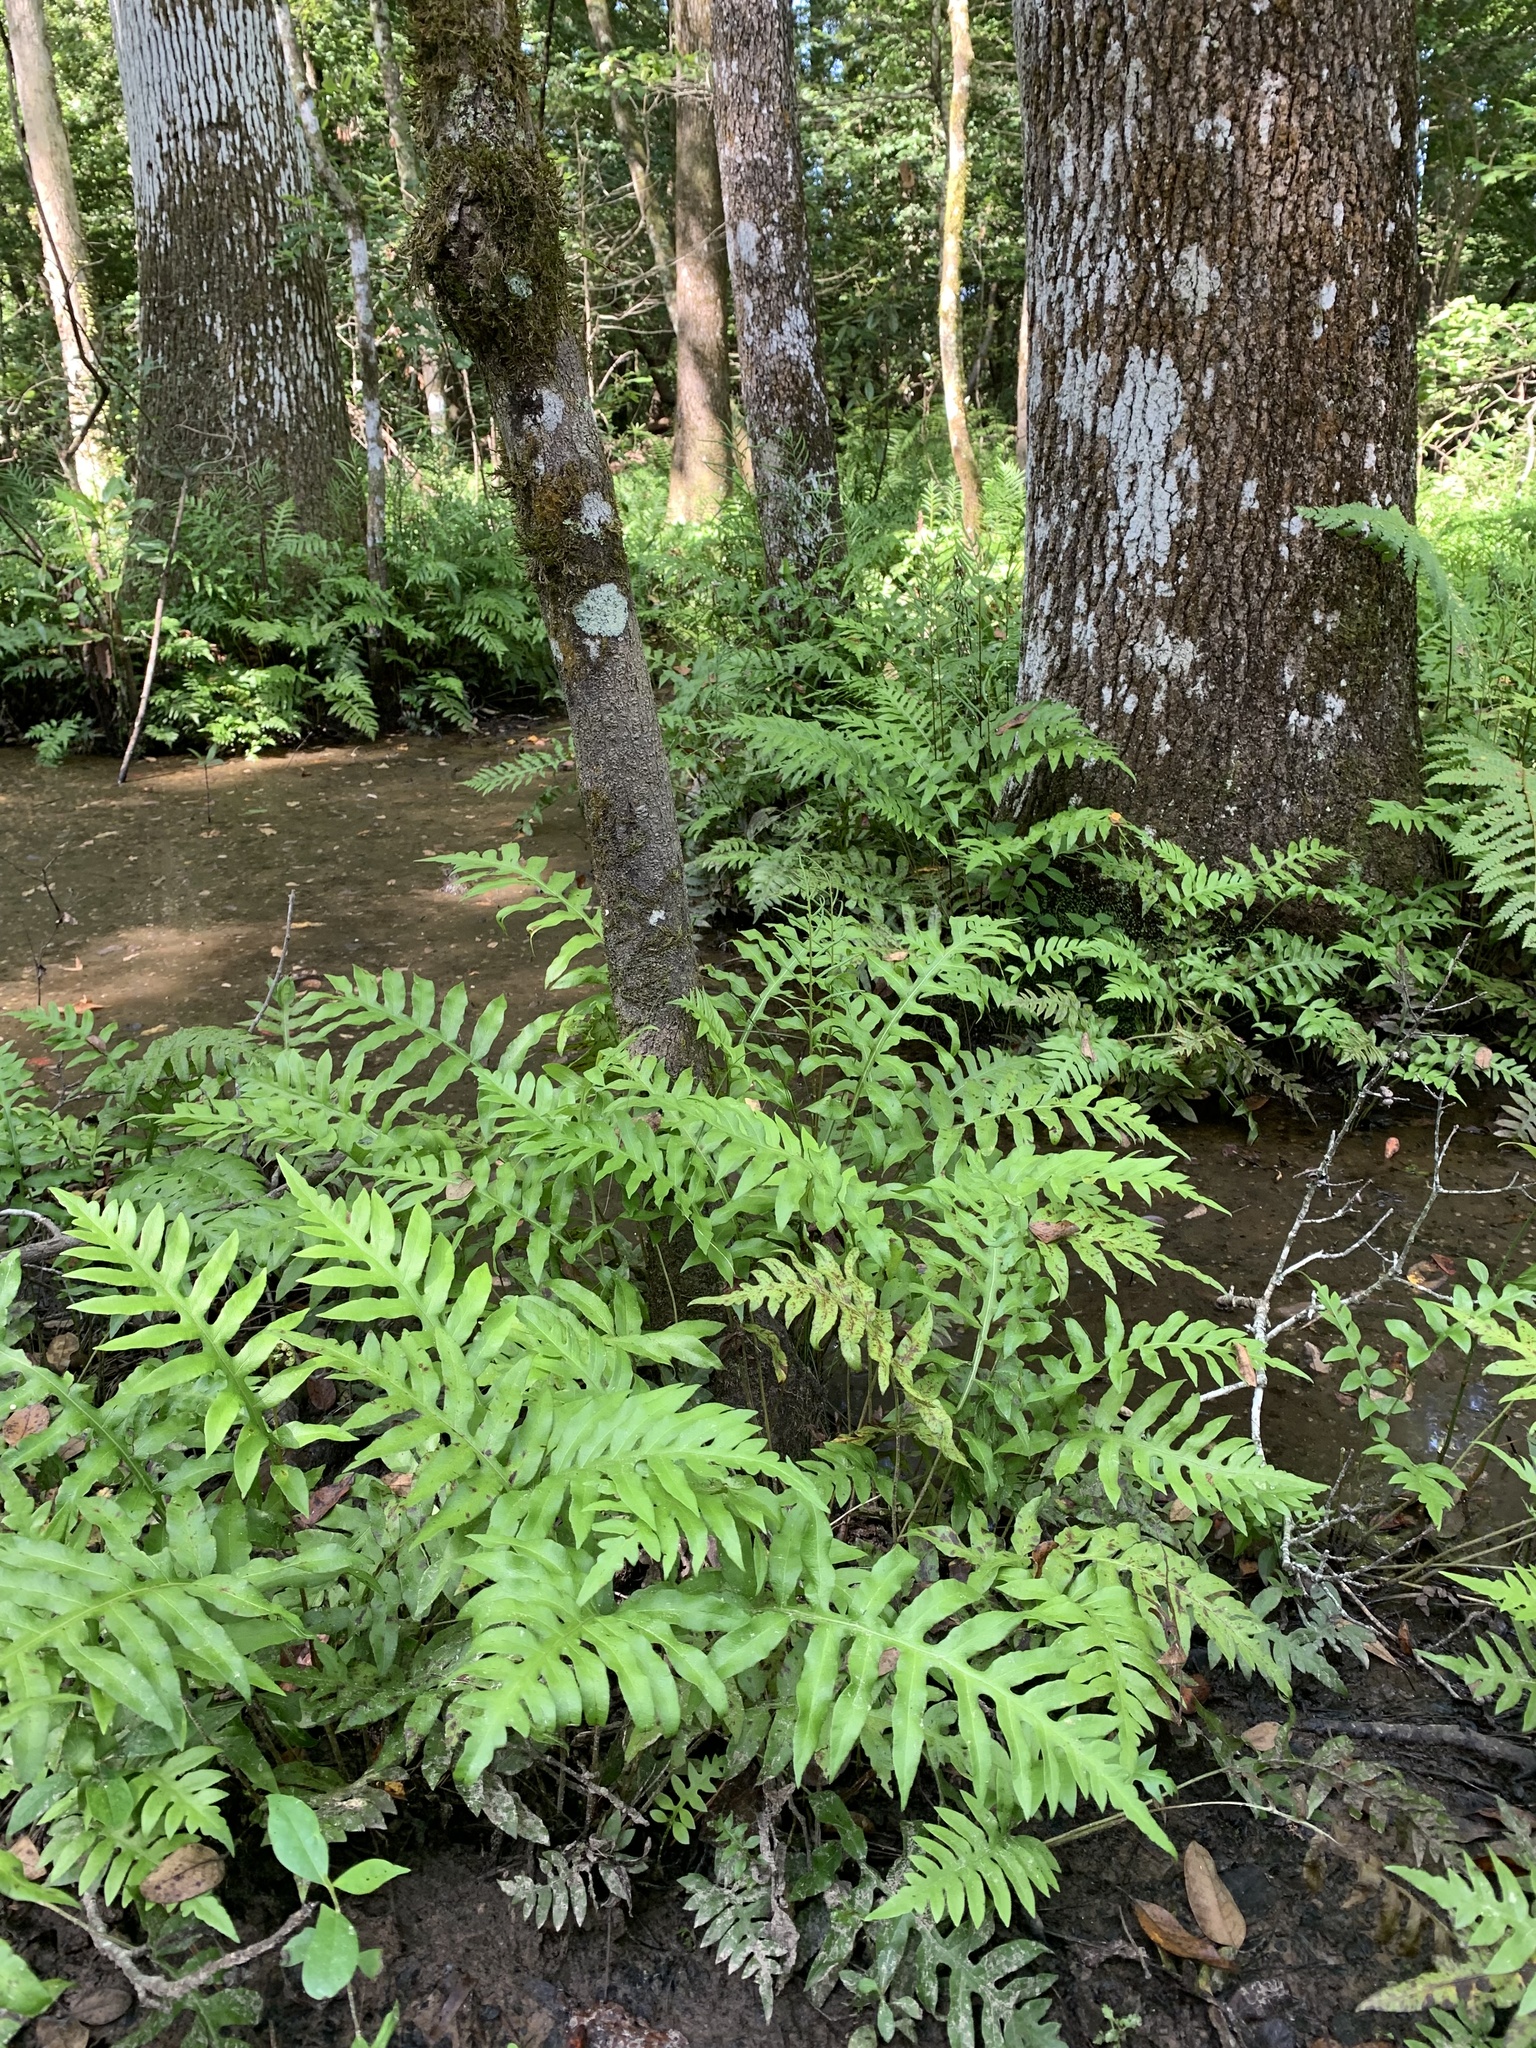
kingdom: Plantae
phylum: Tracheophyta
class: Polypodiopsida
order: Polypodiales
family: Blechnaceae
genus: Lorinseria
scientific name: Lorinseria areolata
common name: Dwarf chain fern
